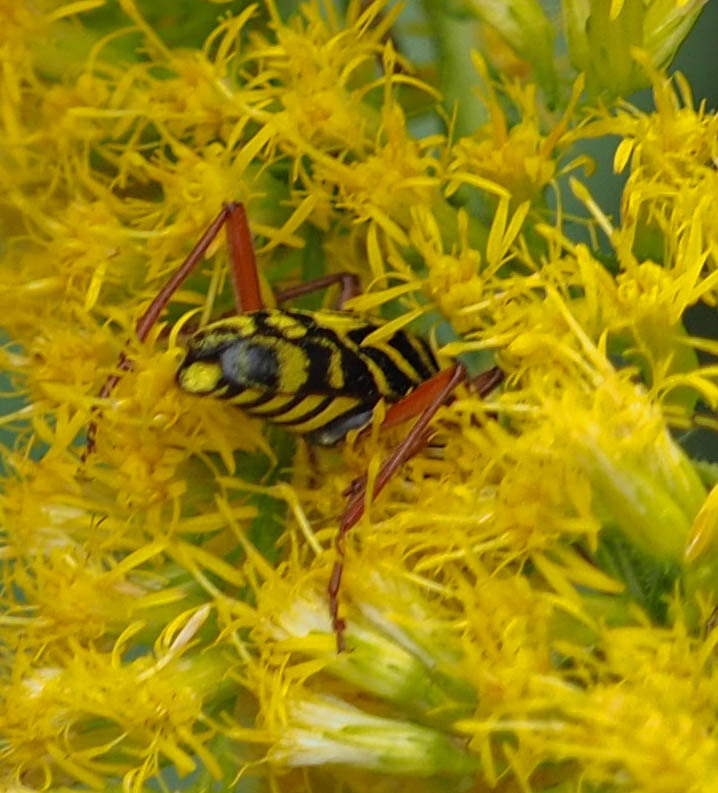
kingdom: Animalia
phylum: Arthropoda
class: Insecta
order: Coleoptera
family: Cerambycidae
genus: Megacyllene
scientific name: Megacyllene robiniae
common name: Locust borer
